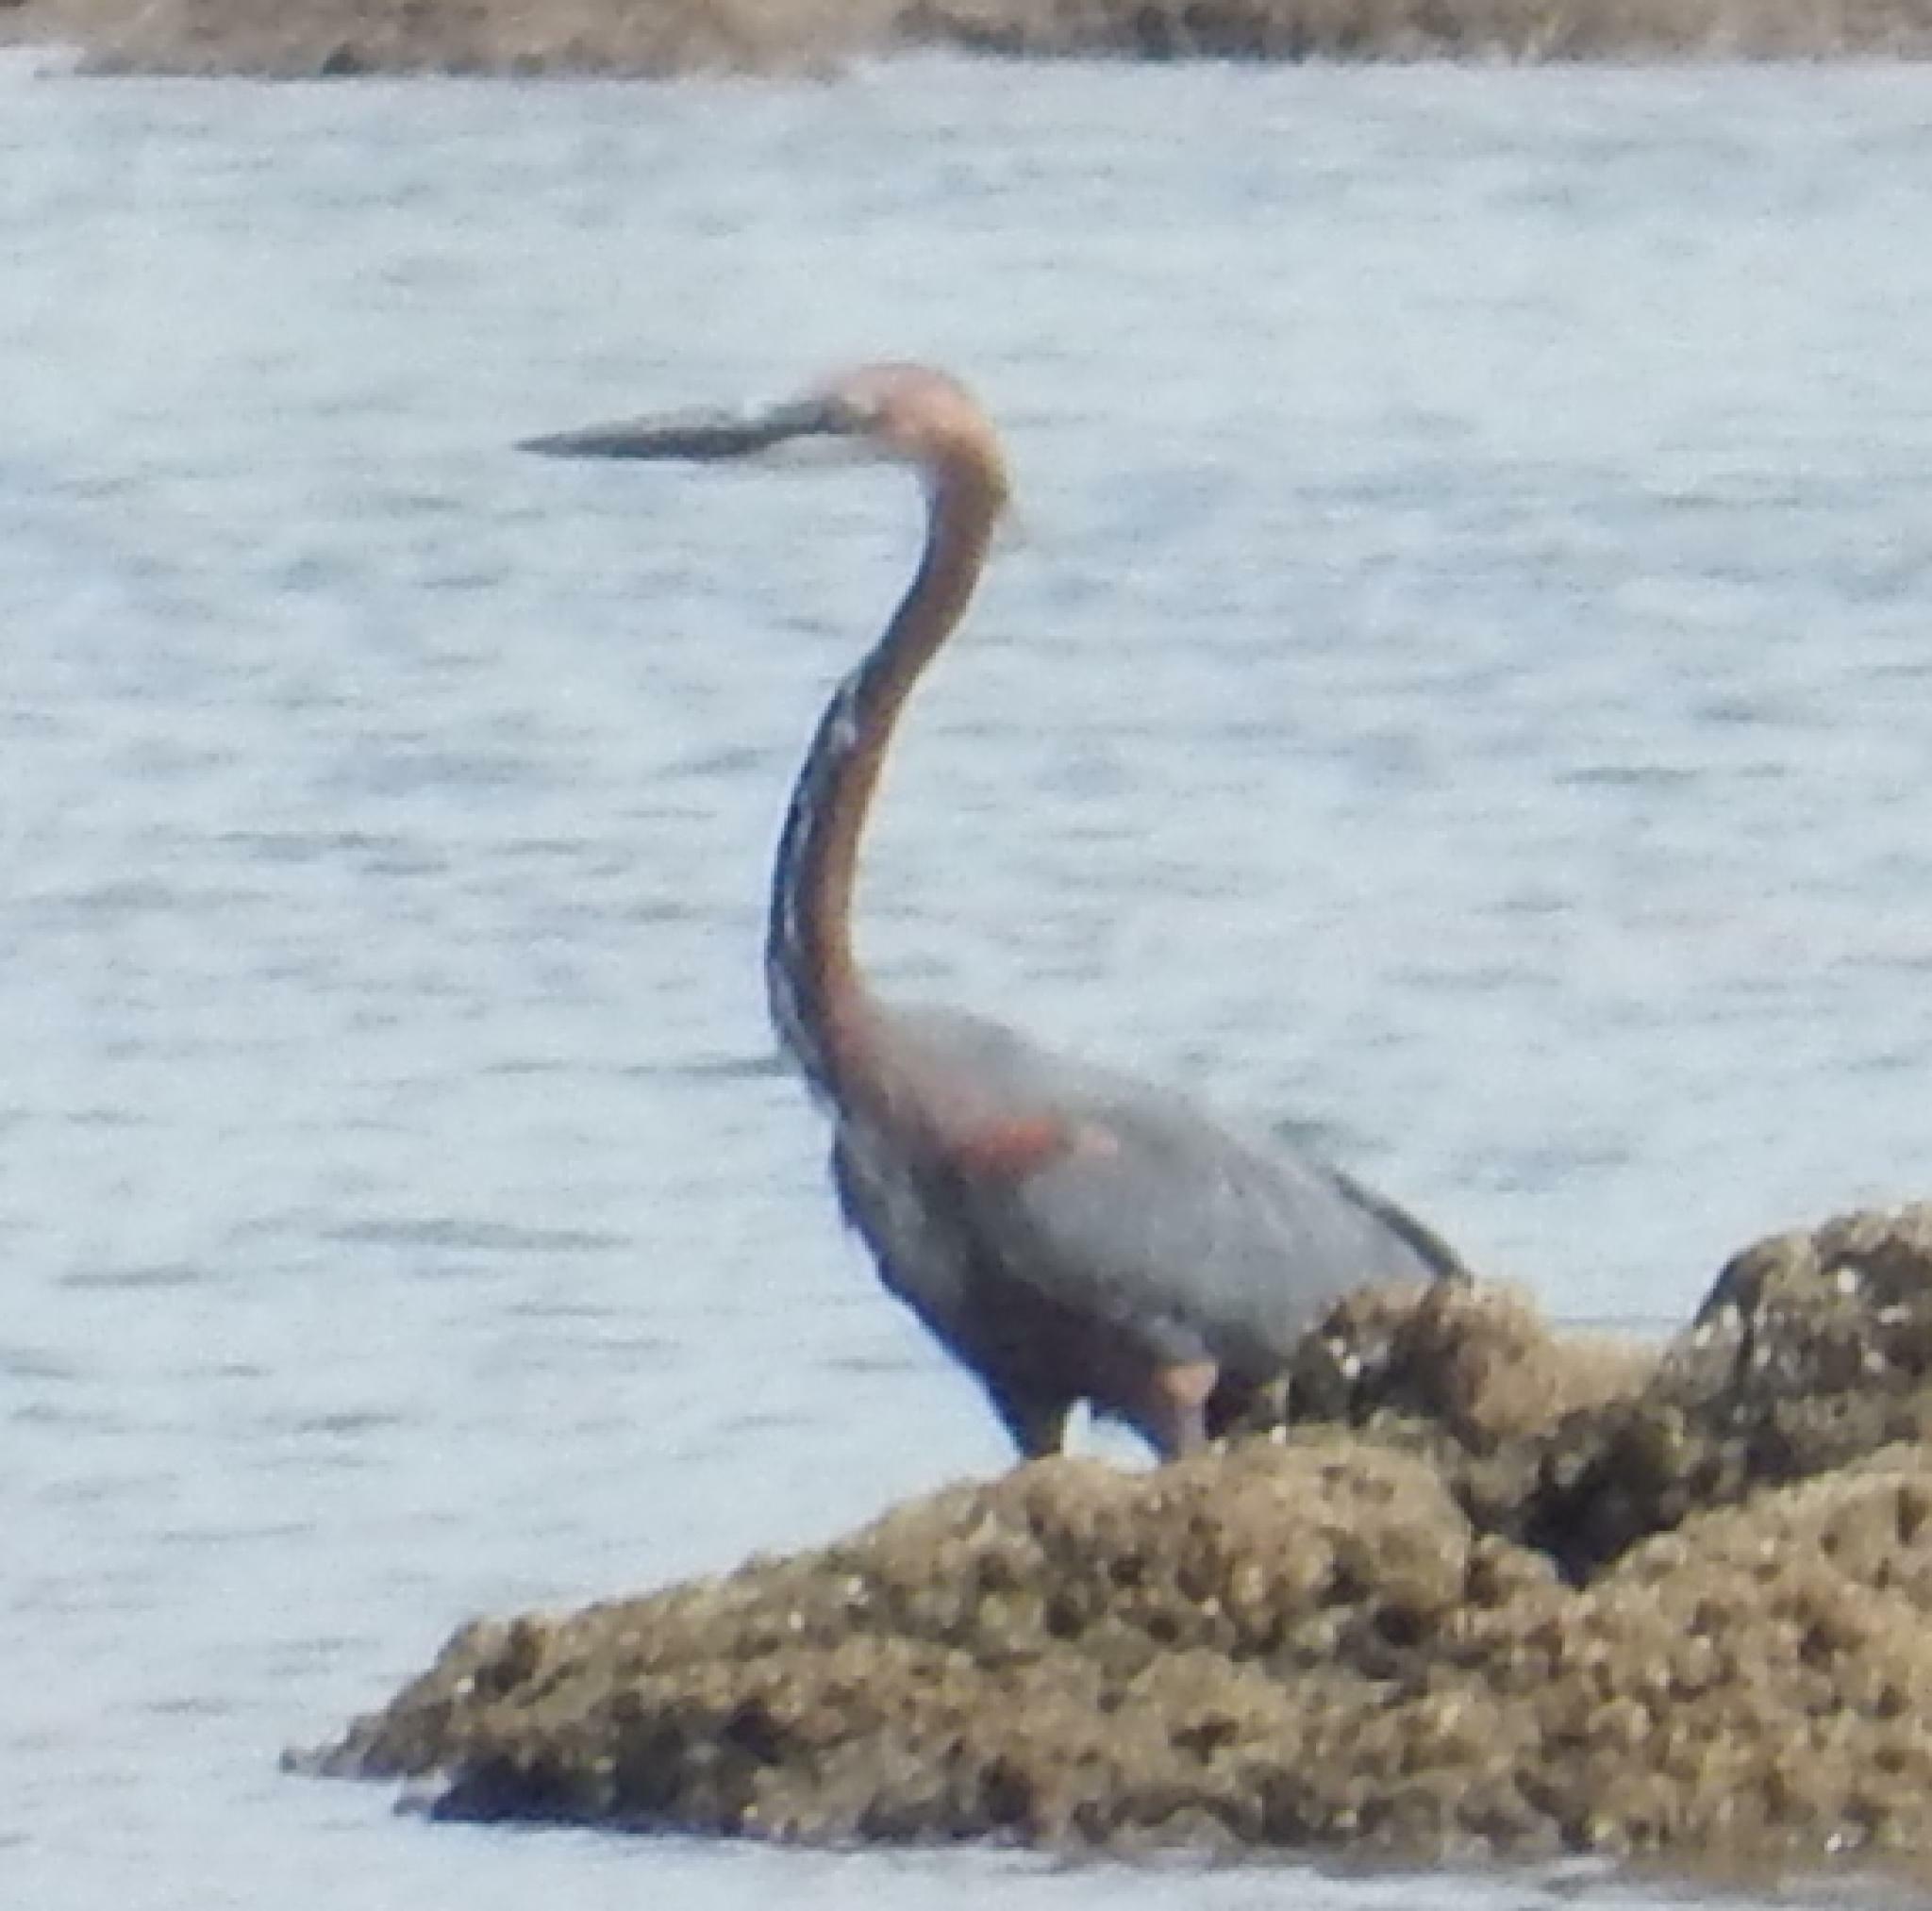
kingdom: Animalia
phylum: Chordata
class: Aves
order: Pelecaniformes
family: Ardeidae
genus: Ardea
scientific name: Ardea goliath
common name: Goliath heron
